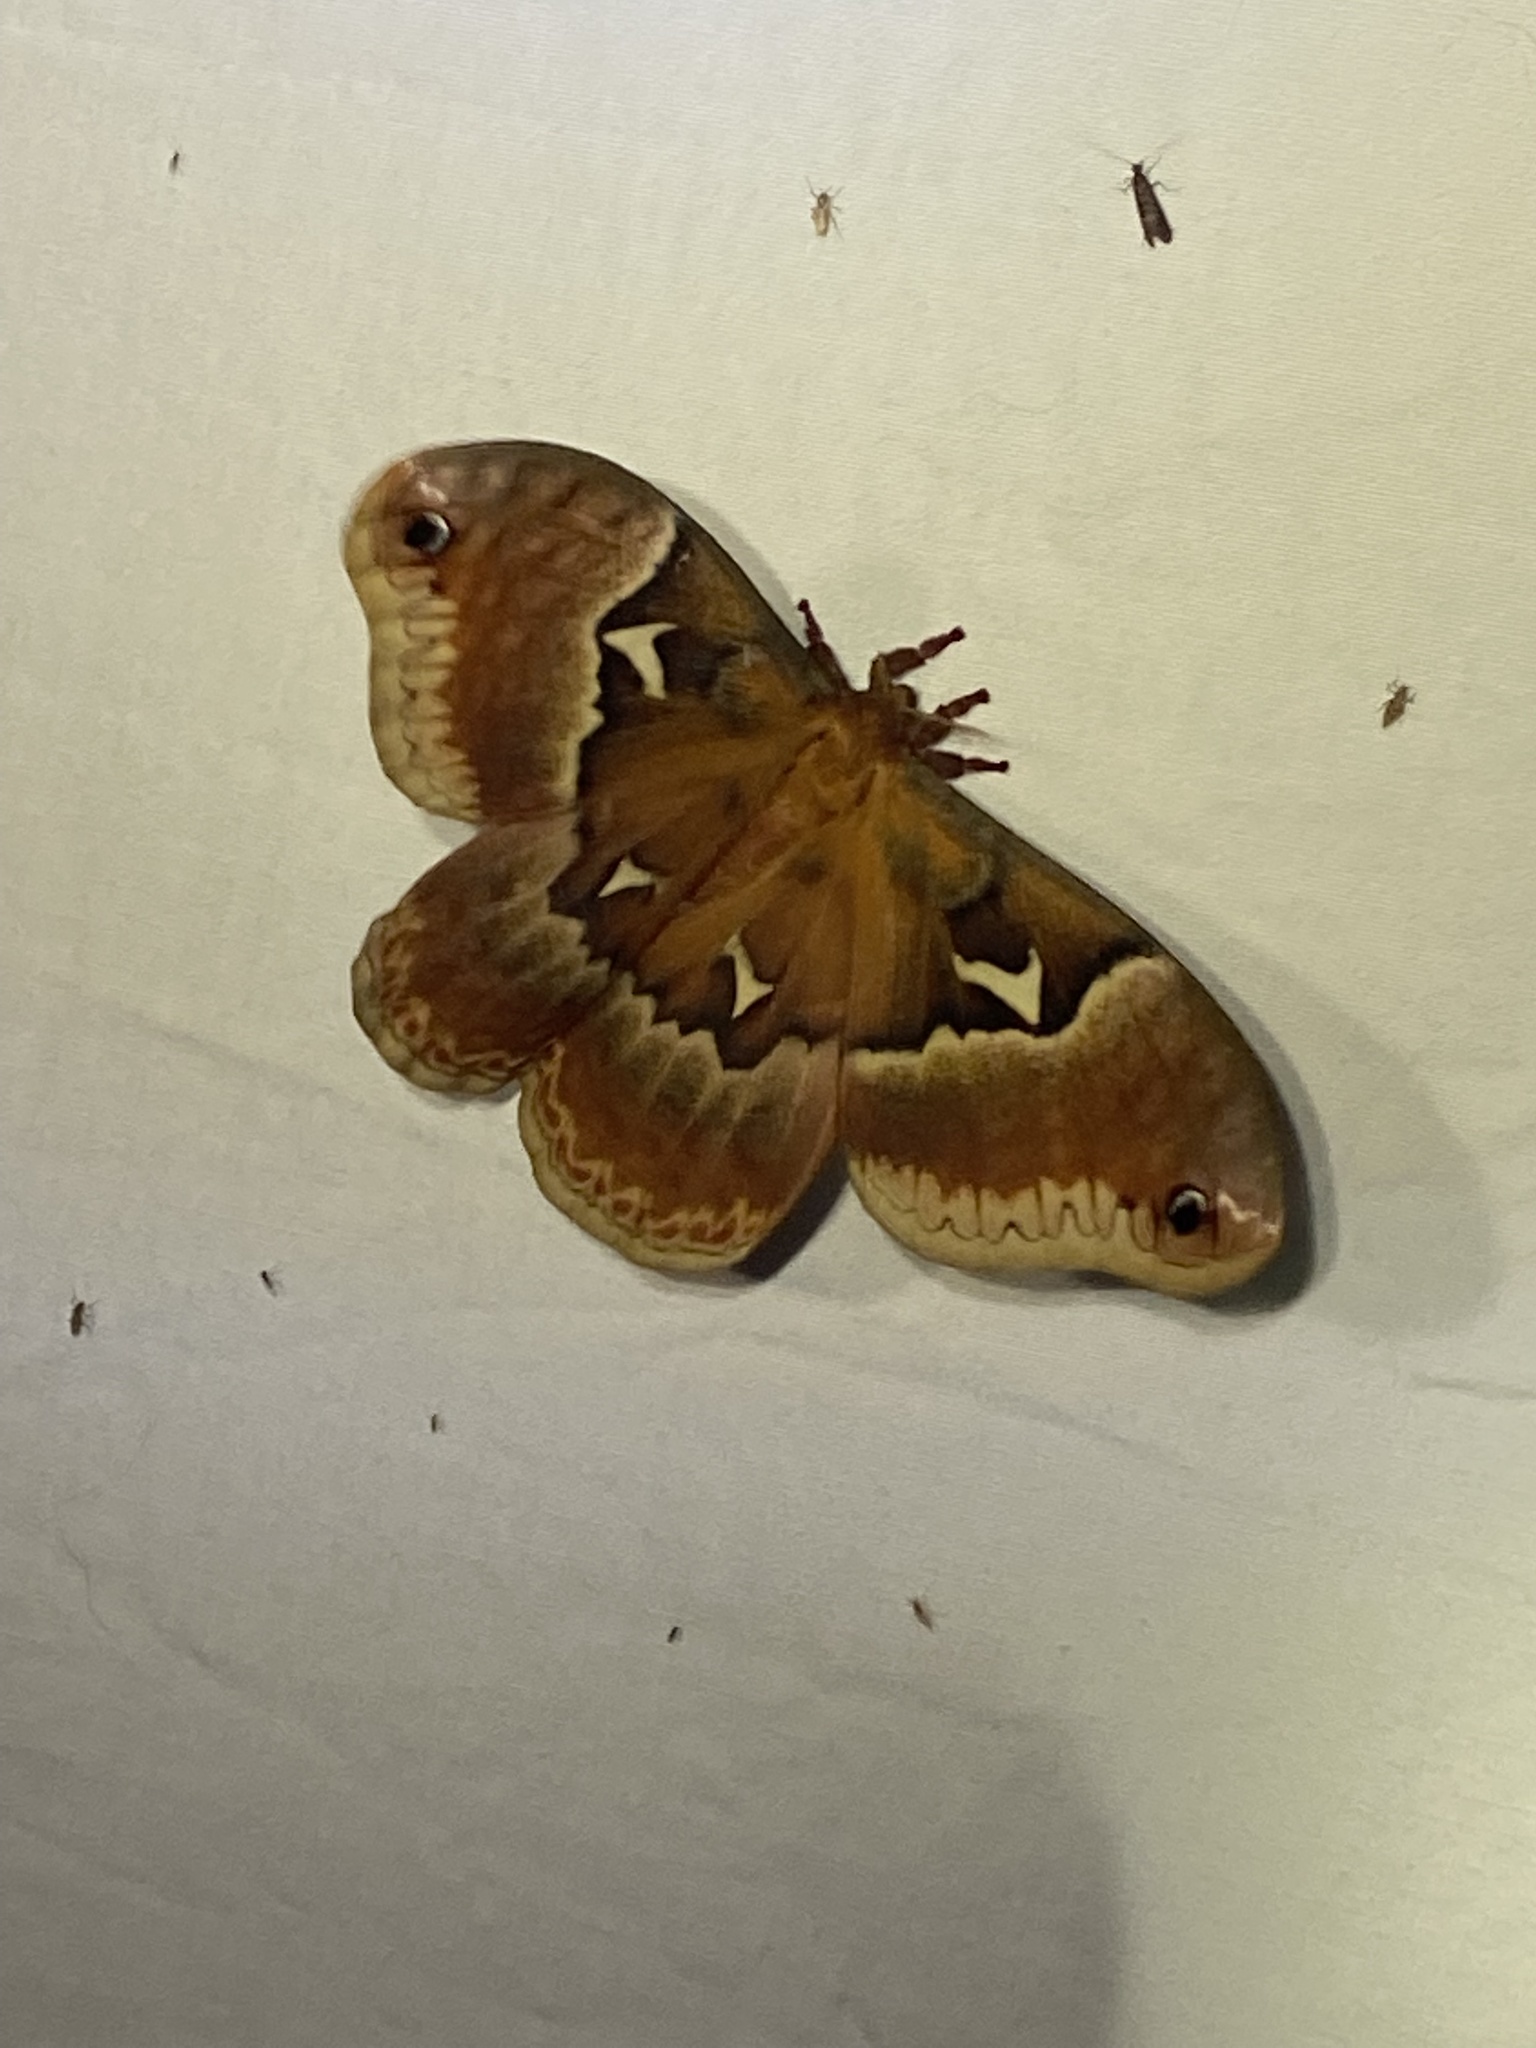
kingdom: Animalia
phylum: Arthropoda
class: Insecta
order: Lepidoptera
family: Saturniidae
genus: Callosamia
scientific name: Callosamia angulifera
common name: Tulip tree silkmoth
